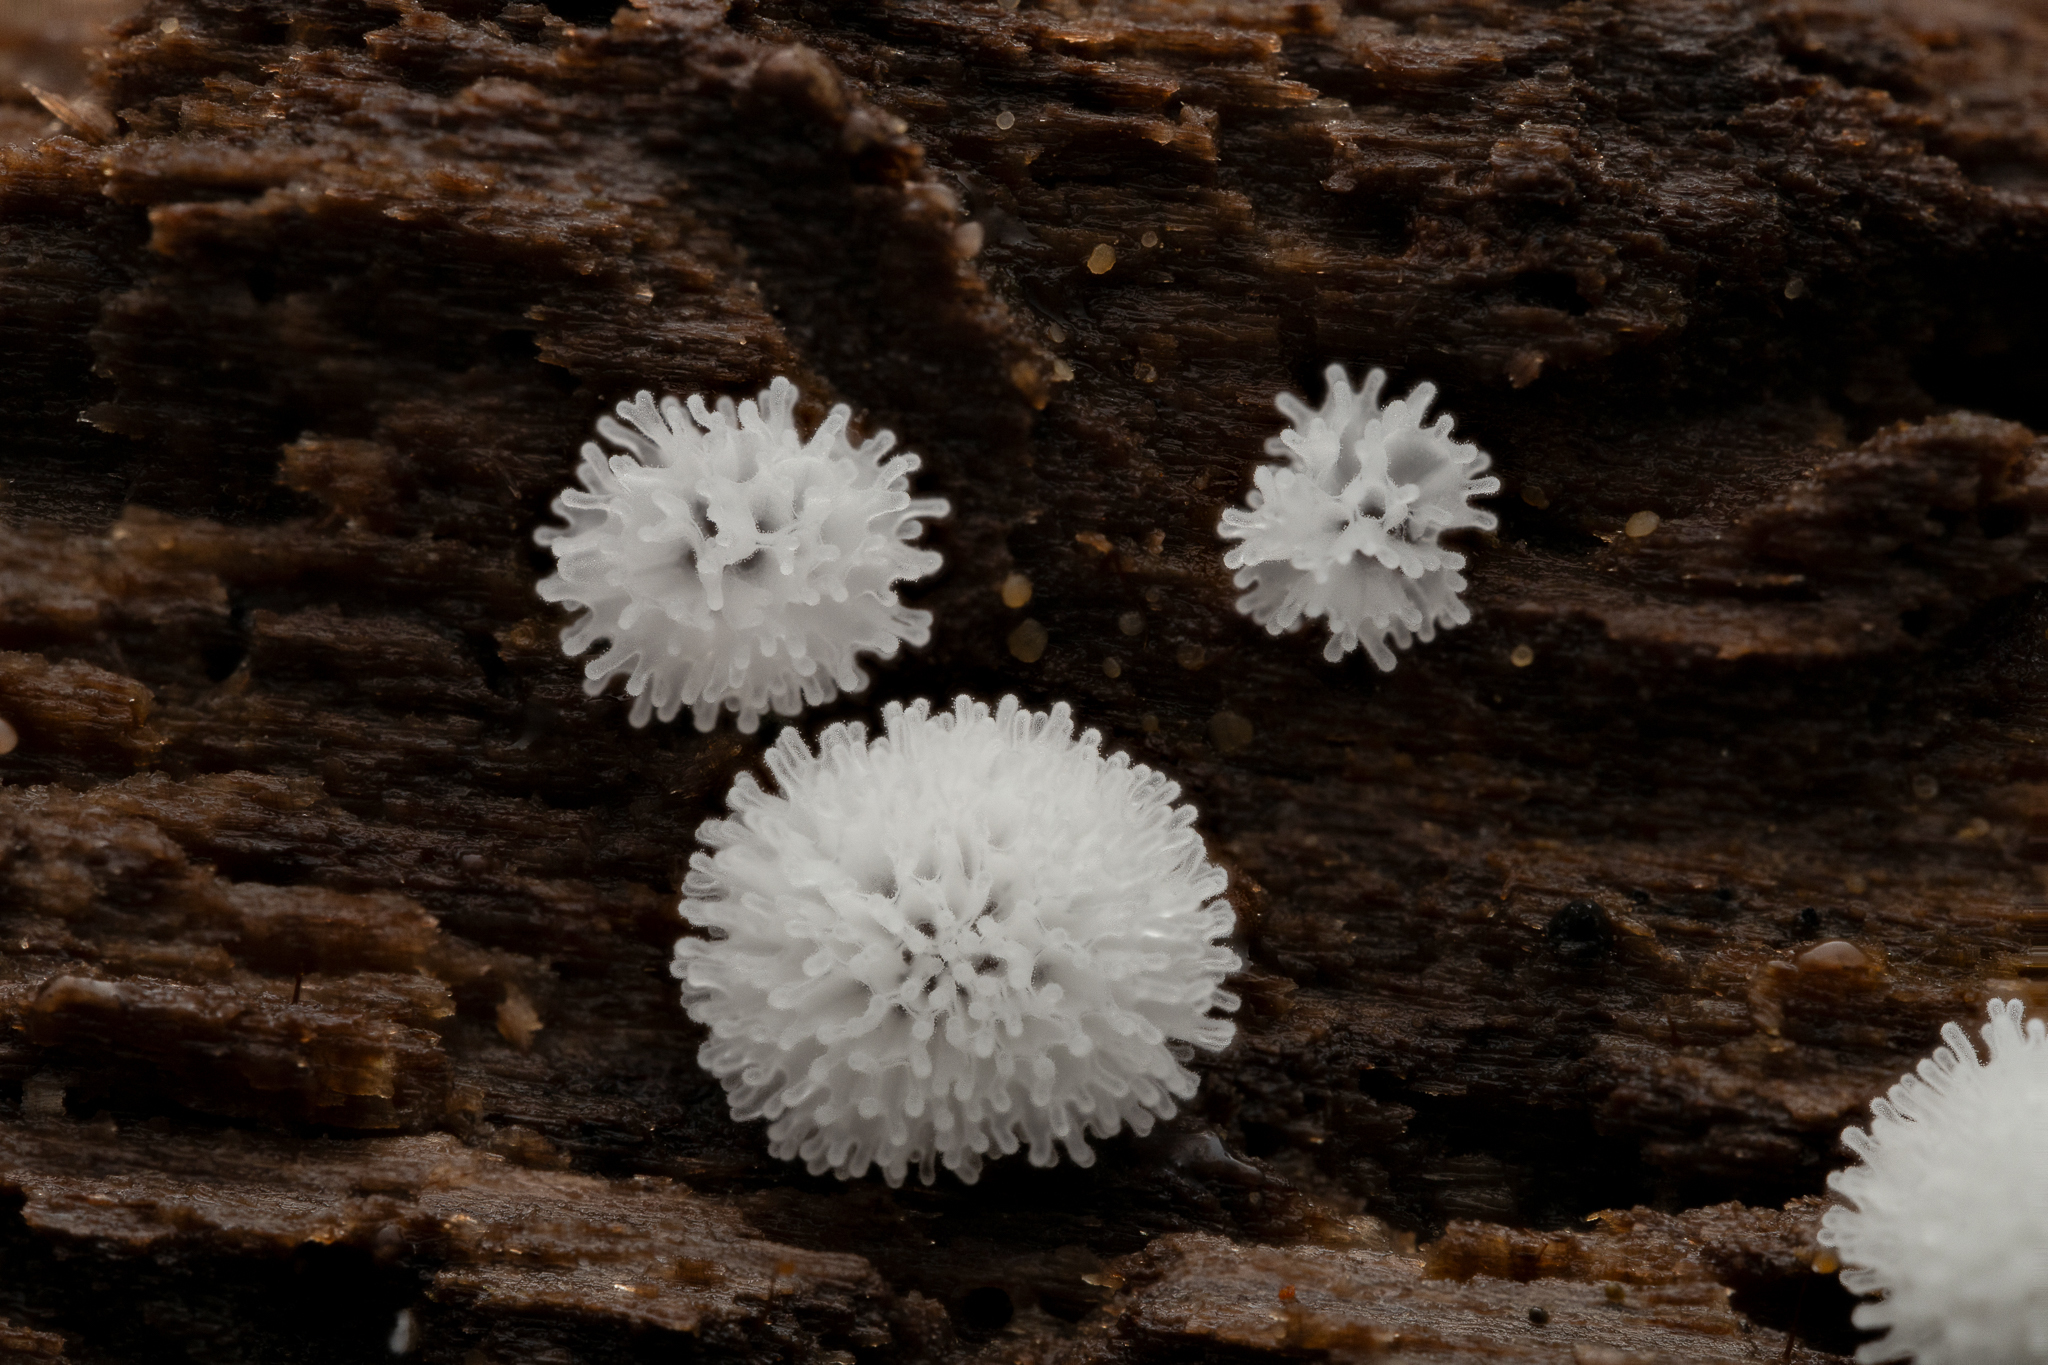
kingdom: Protozoa
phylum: Mycetozoa
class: Protosteliomycetes
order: Ceratiomyxales
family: Ceratiomyxaceae
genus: Ceratiomyxa
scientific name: Ceratiomyxa fruticulosa
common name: Honeycomb coral slime mold
